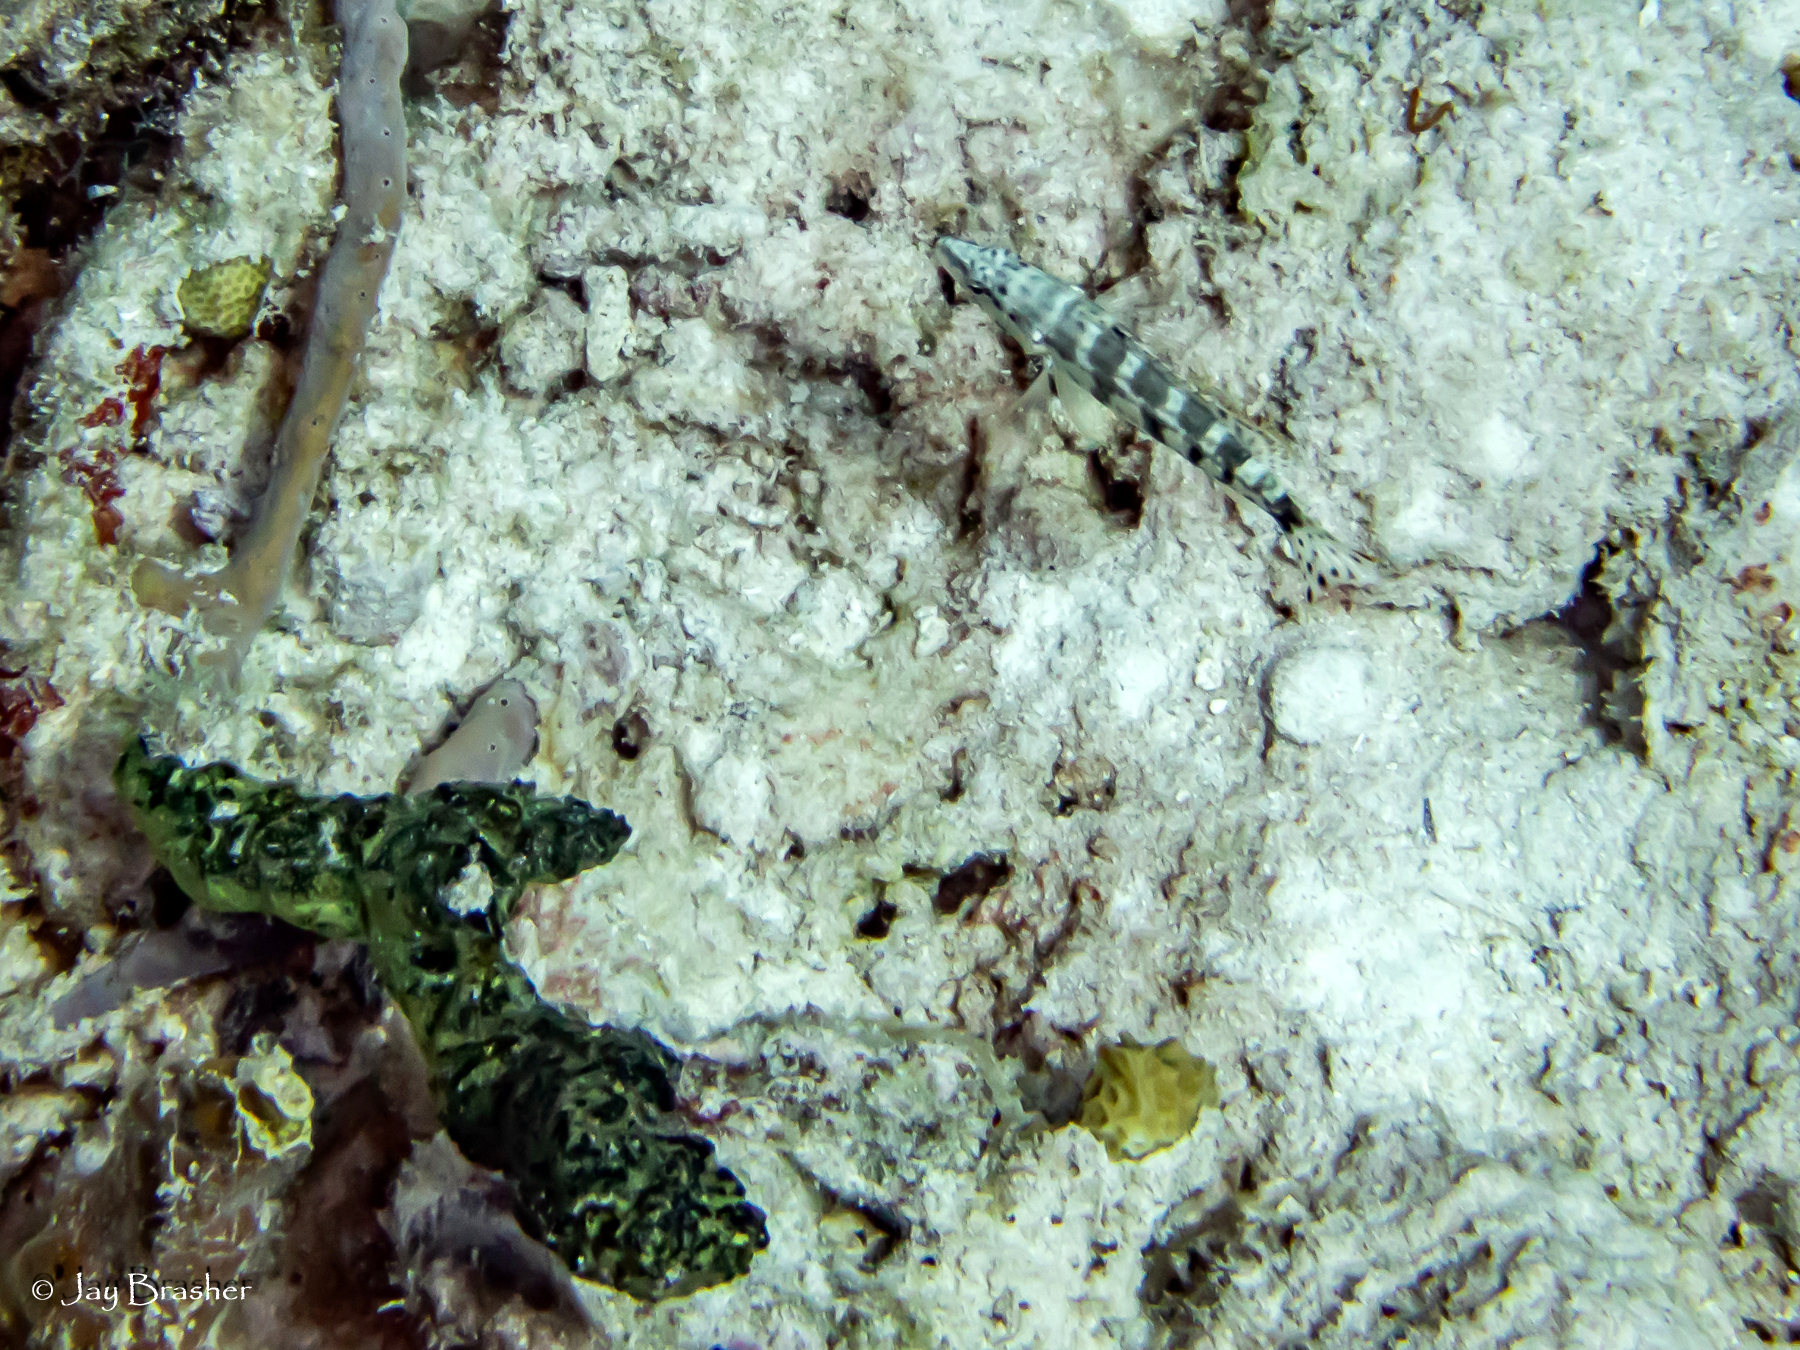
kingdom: Animalia
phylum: Porifera
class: Demospongiae
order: Poecilosclerida
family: Iotrochotidae
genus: Iotrochota
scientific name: Iotrochota birotulata
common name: Purple bleeding sponge
